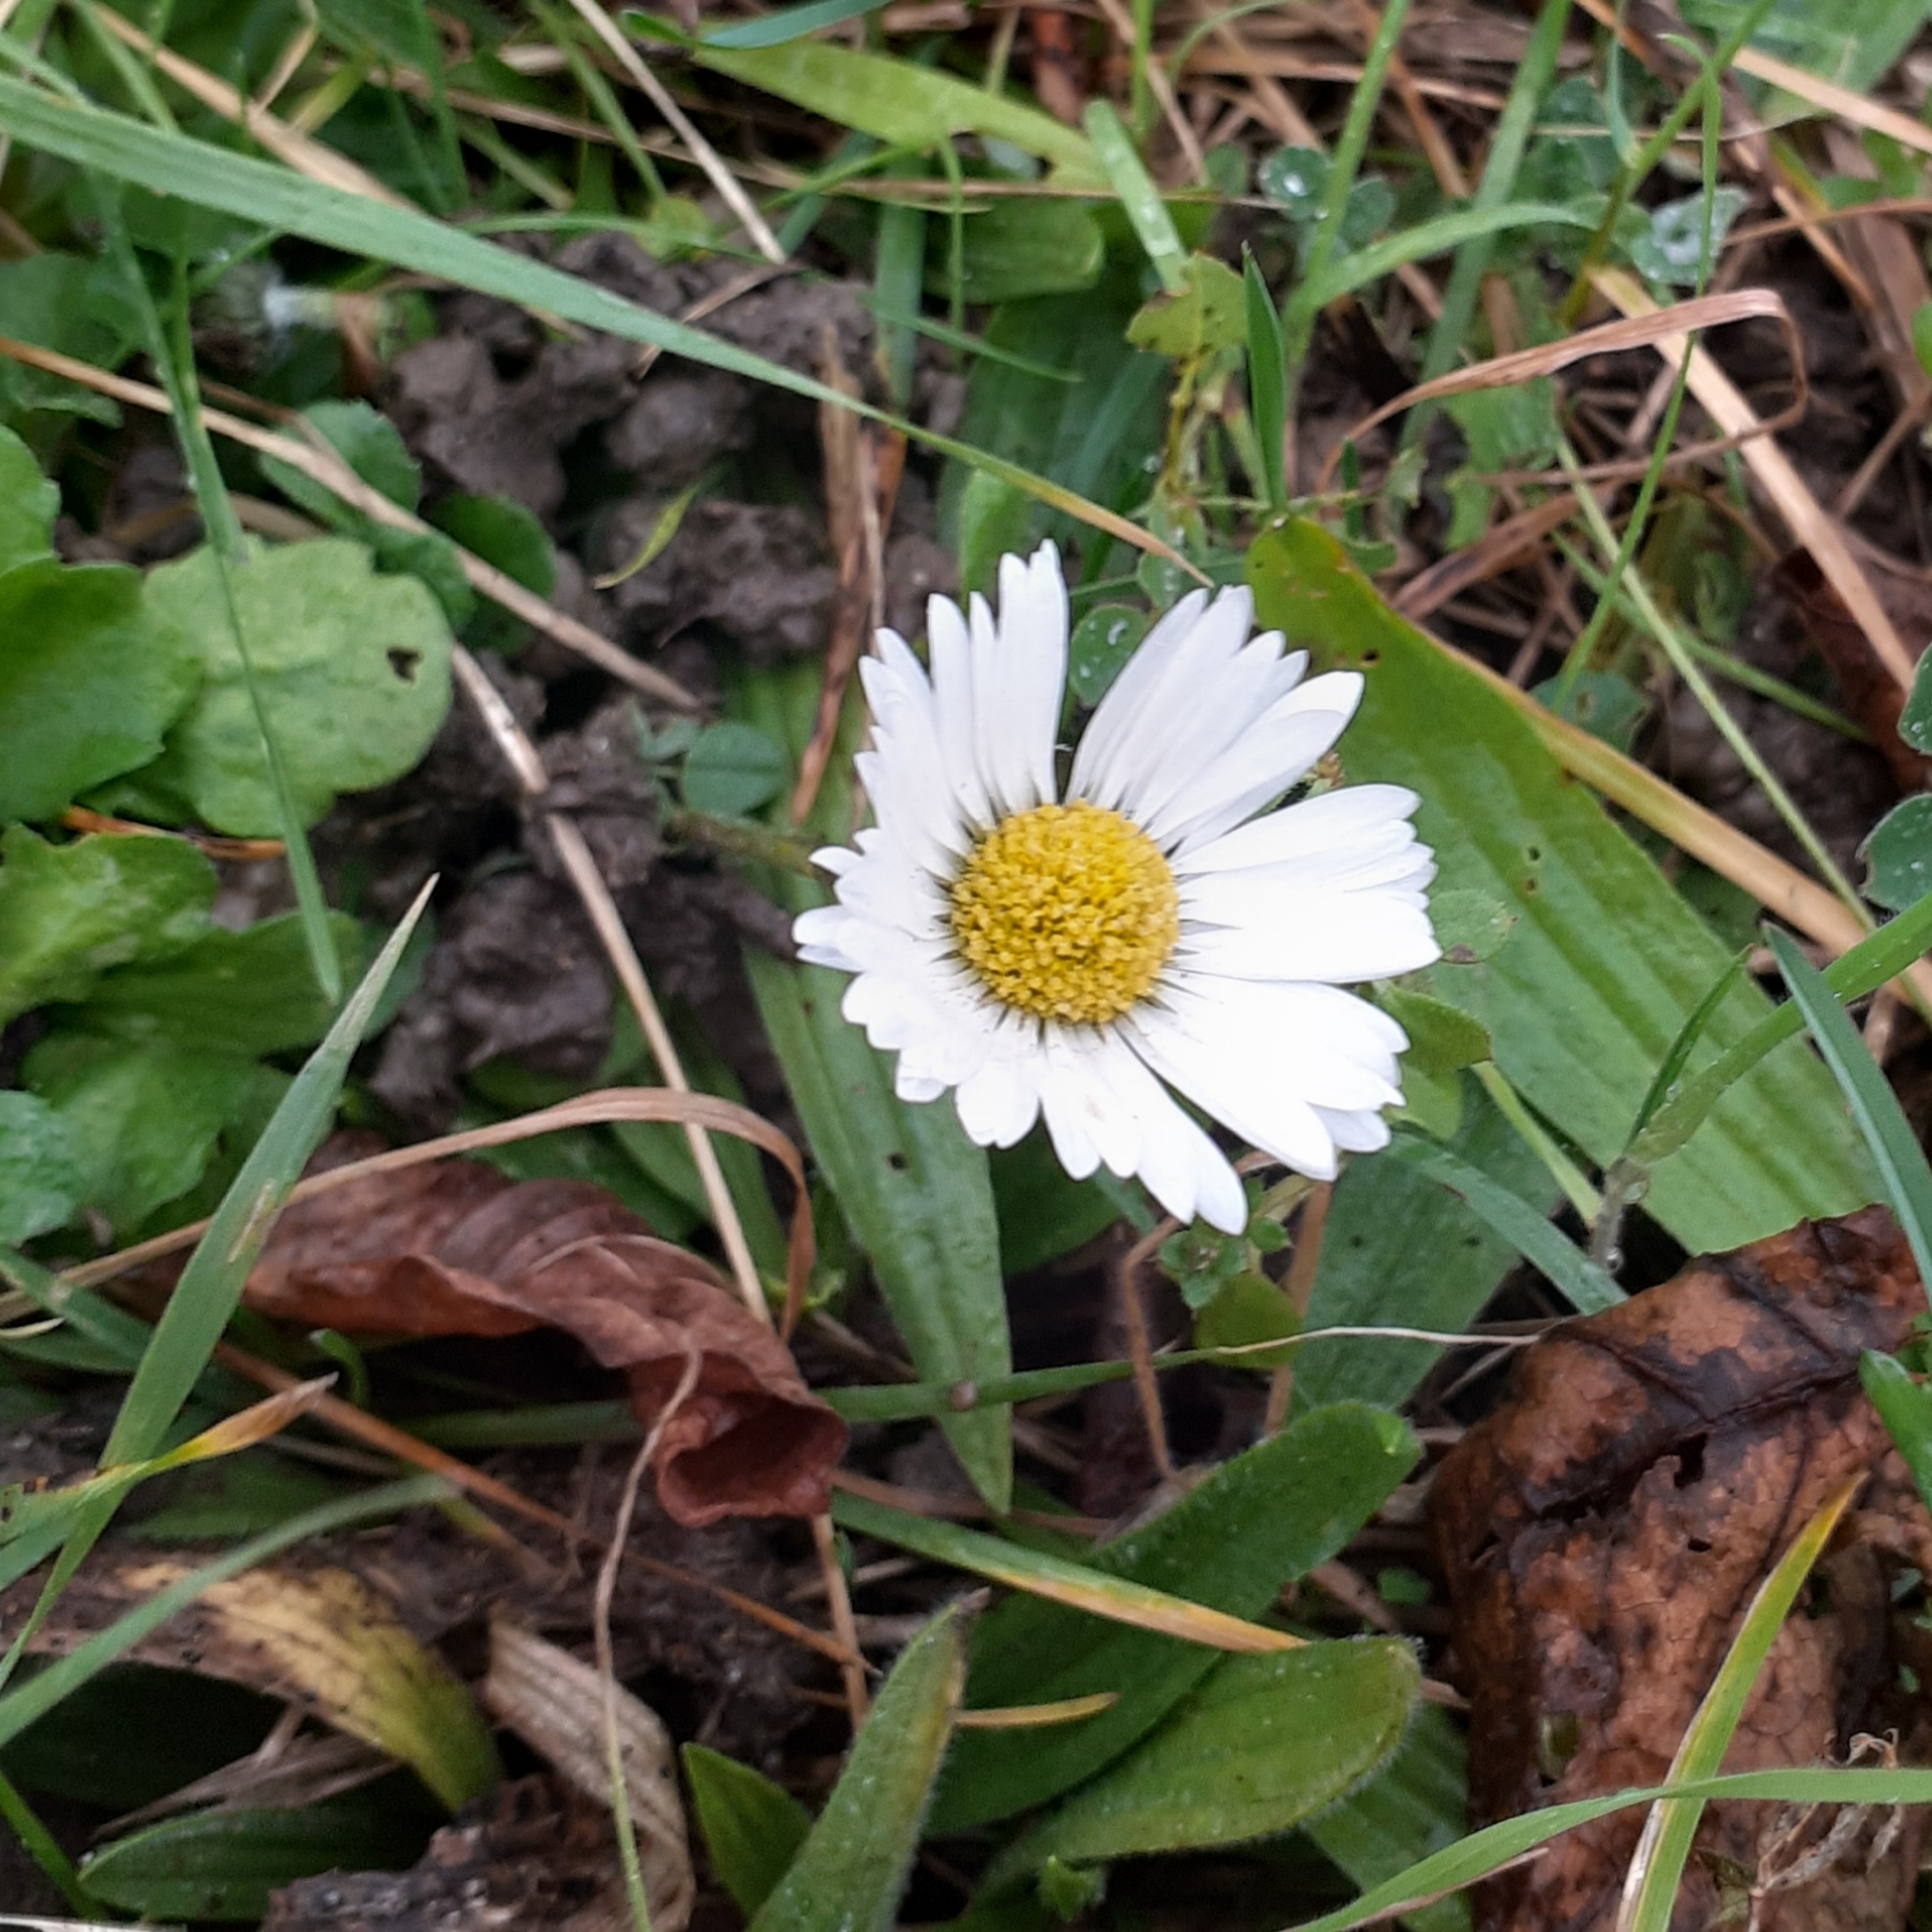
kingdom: Plantae
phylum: Tracheophyta
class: Magnoliopsida
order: Asterales
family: Asteraceae
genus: Bellis
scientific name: Bellis perennis
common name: Lawndaisy
